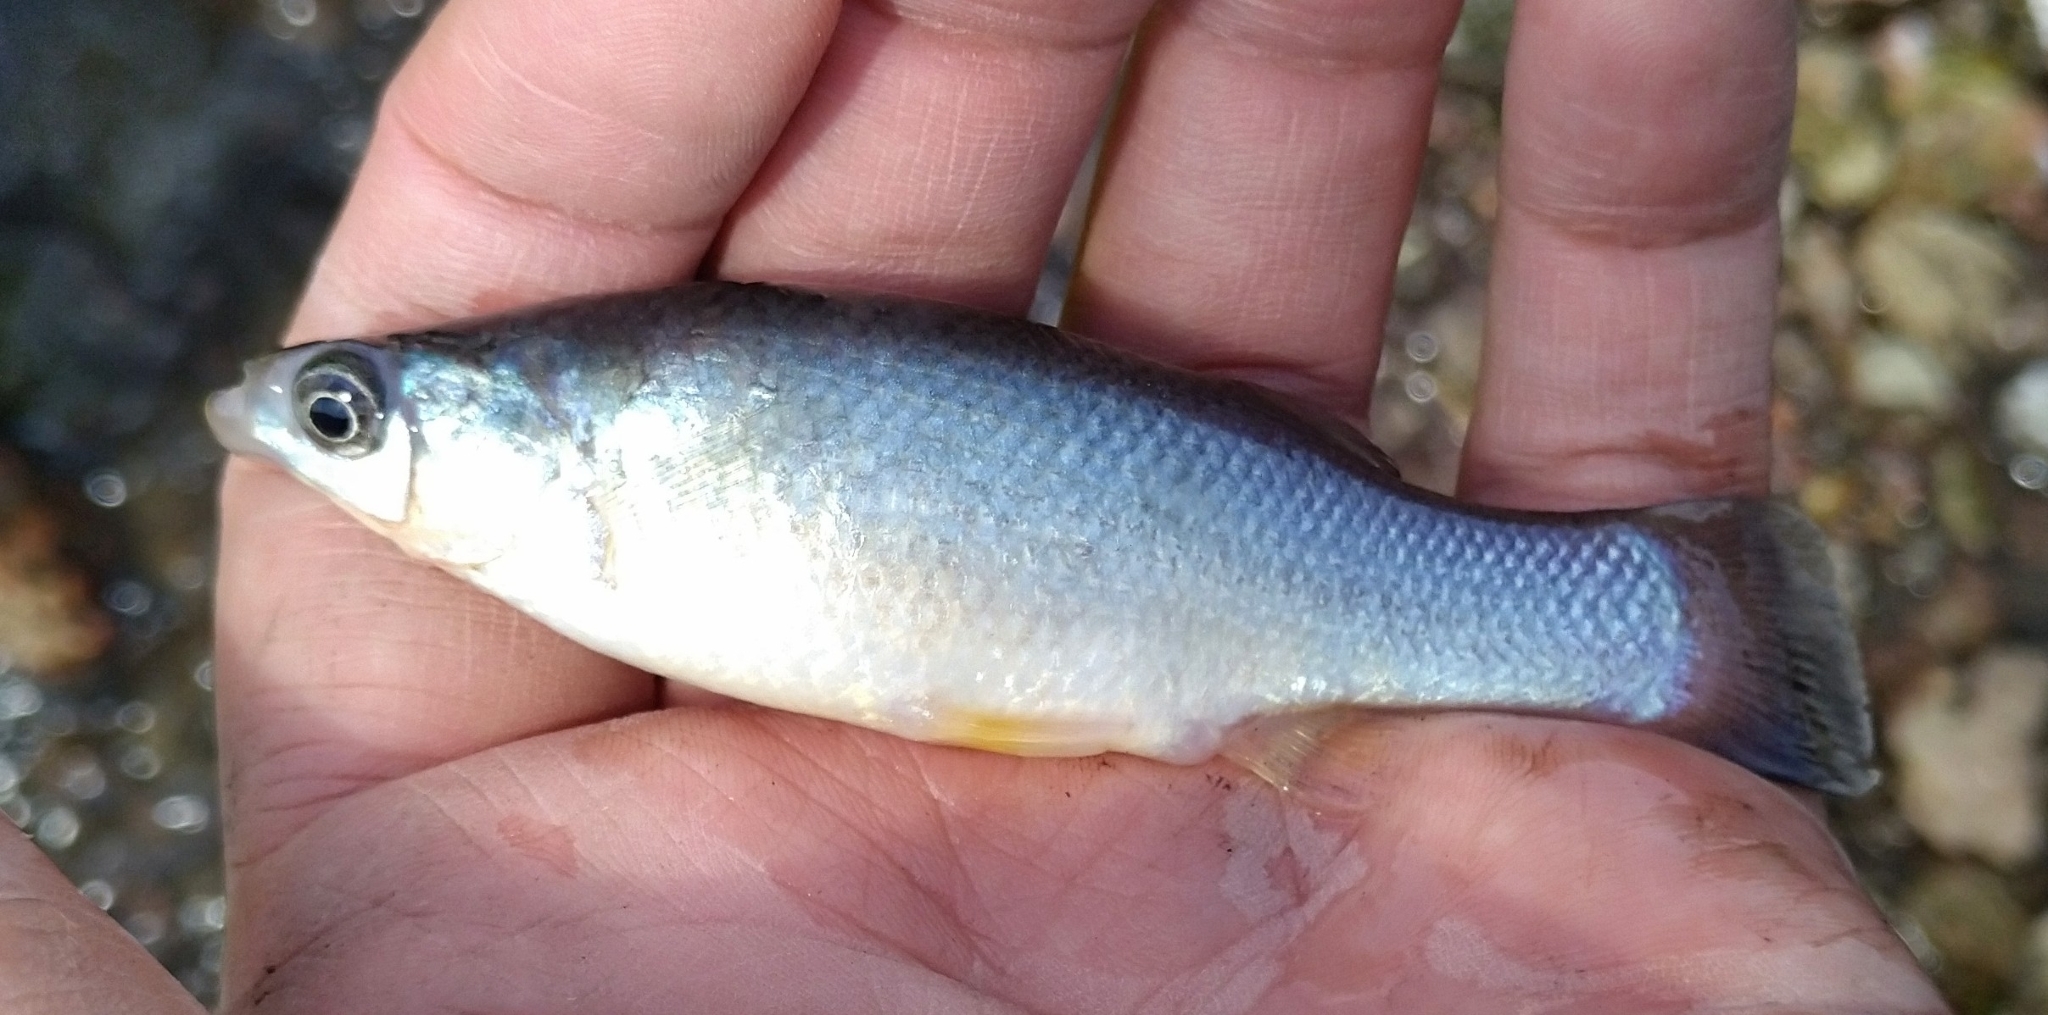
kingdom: Animalia
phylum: Chordata
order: Cyprinodontiformes
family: Goodeidae
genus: Goodea
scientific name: Goodea atripinnis
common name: Blackfin goodea
